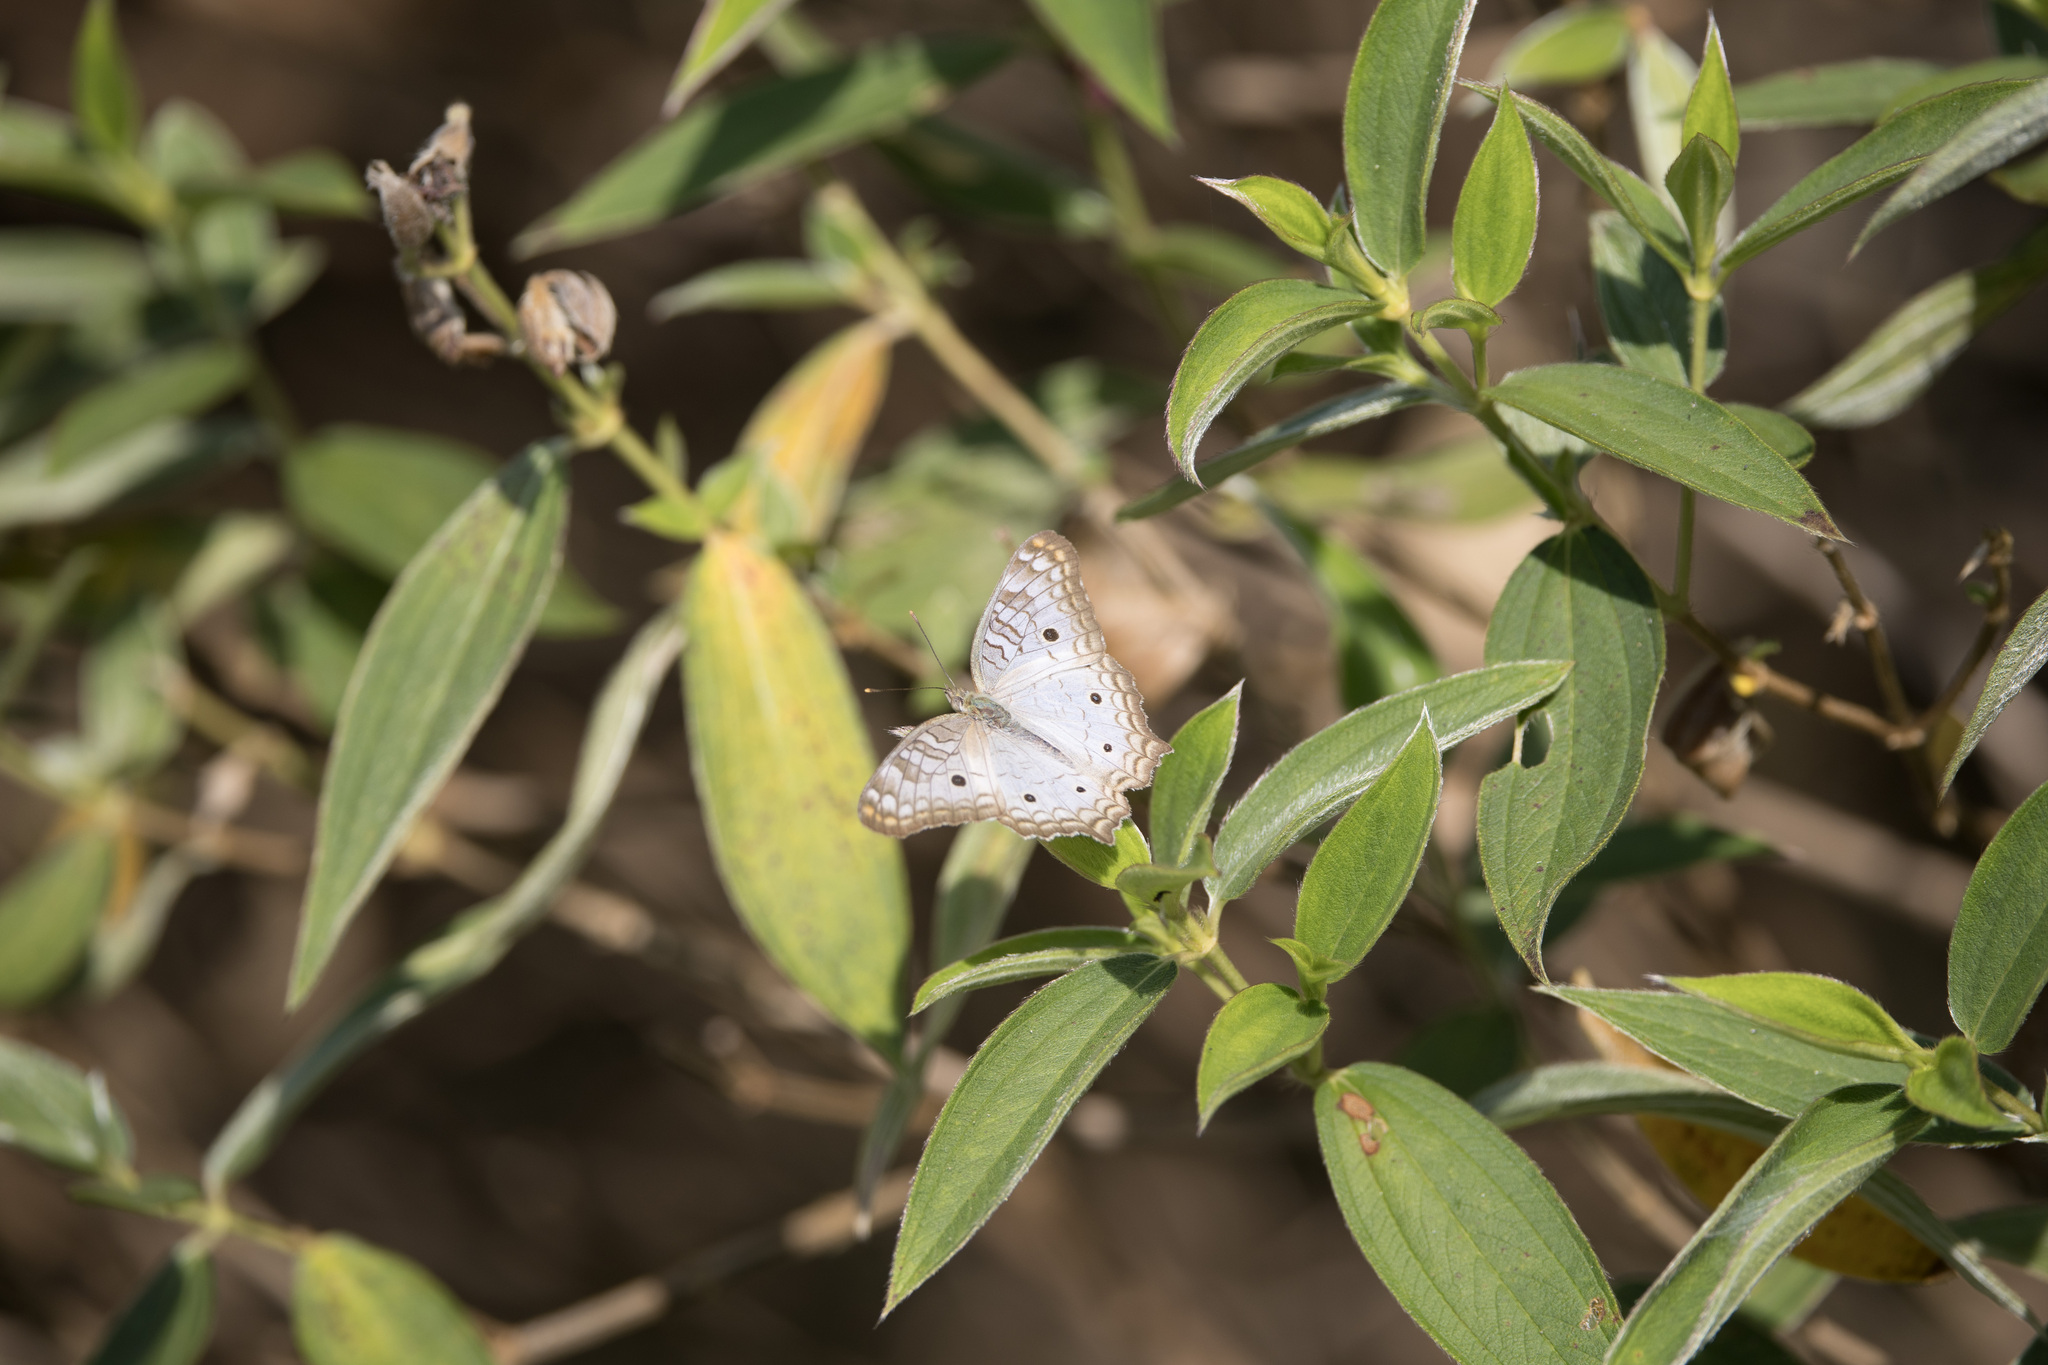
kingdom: Animalia
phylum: Arthropoda
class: Insecta
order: Lepidoptera
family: Nymphalidae
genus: Anartia
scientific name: Anartia jatrophae
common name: White peacock
